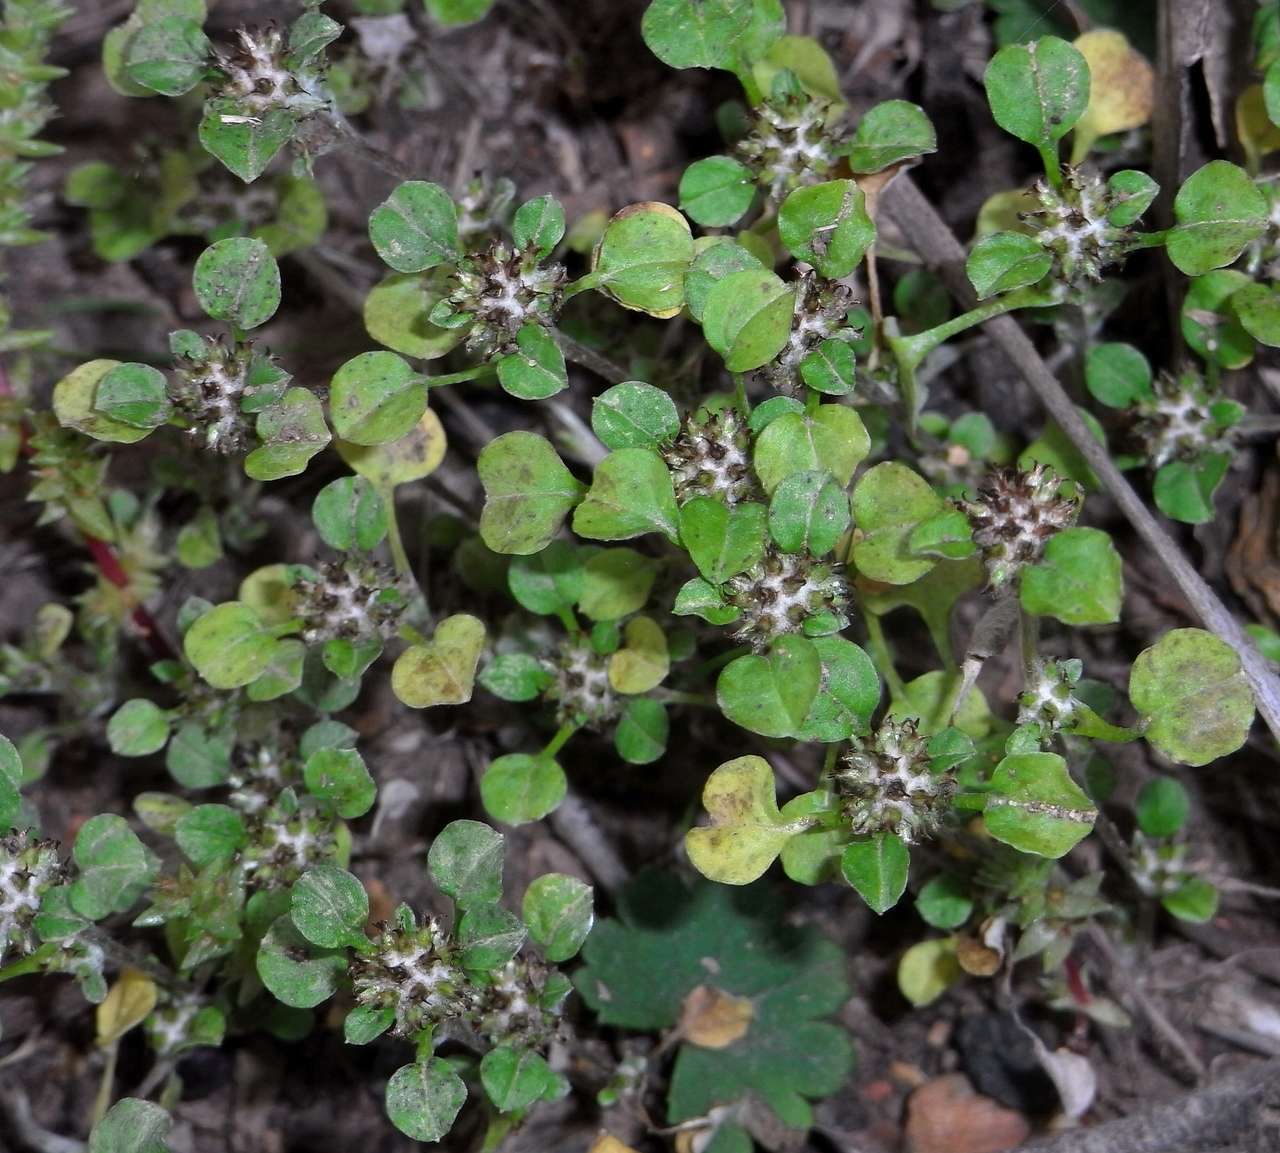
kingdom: Plantae
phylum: Tracheophyta
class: Magnoliopsida
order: Asterales
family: Asteraceae
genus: Stuartina
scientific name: Stuartina muelleri
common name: Spoon-leaved cudweed
